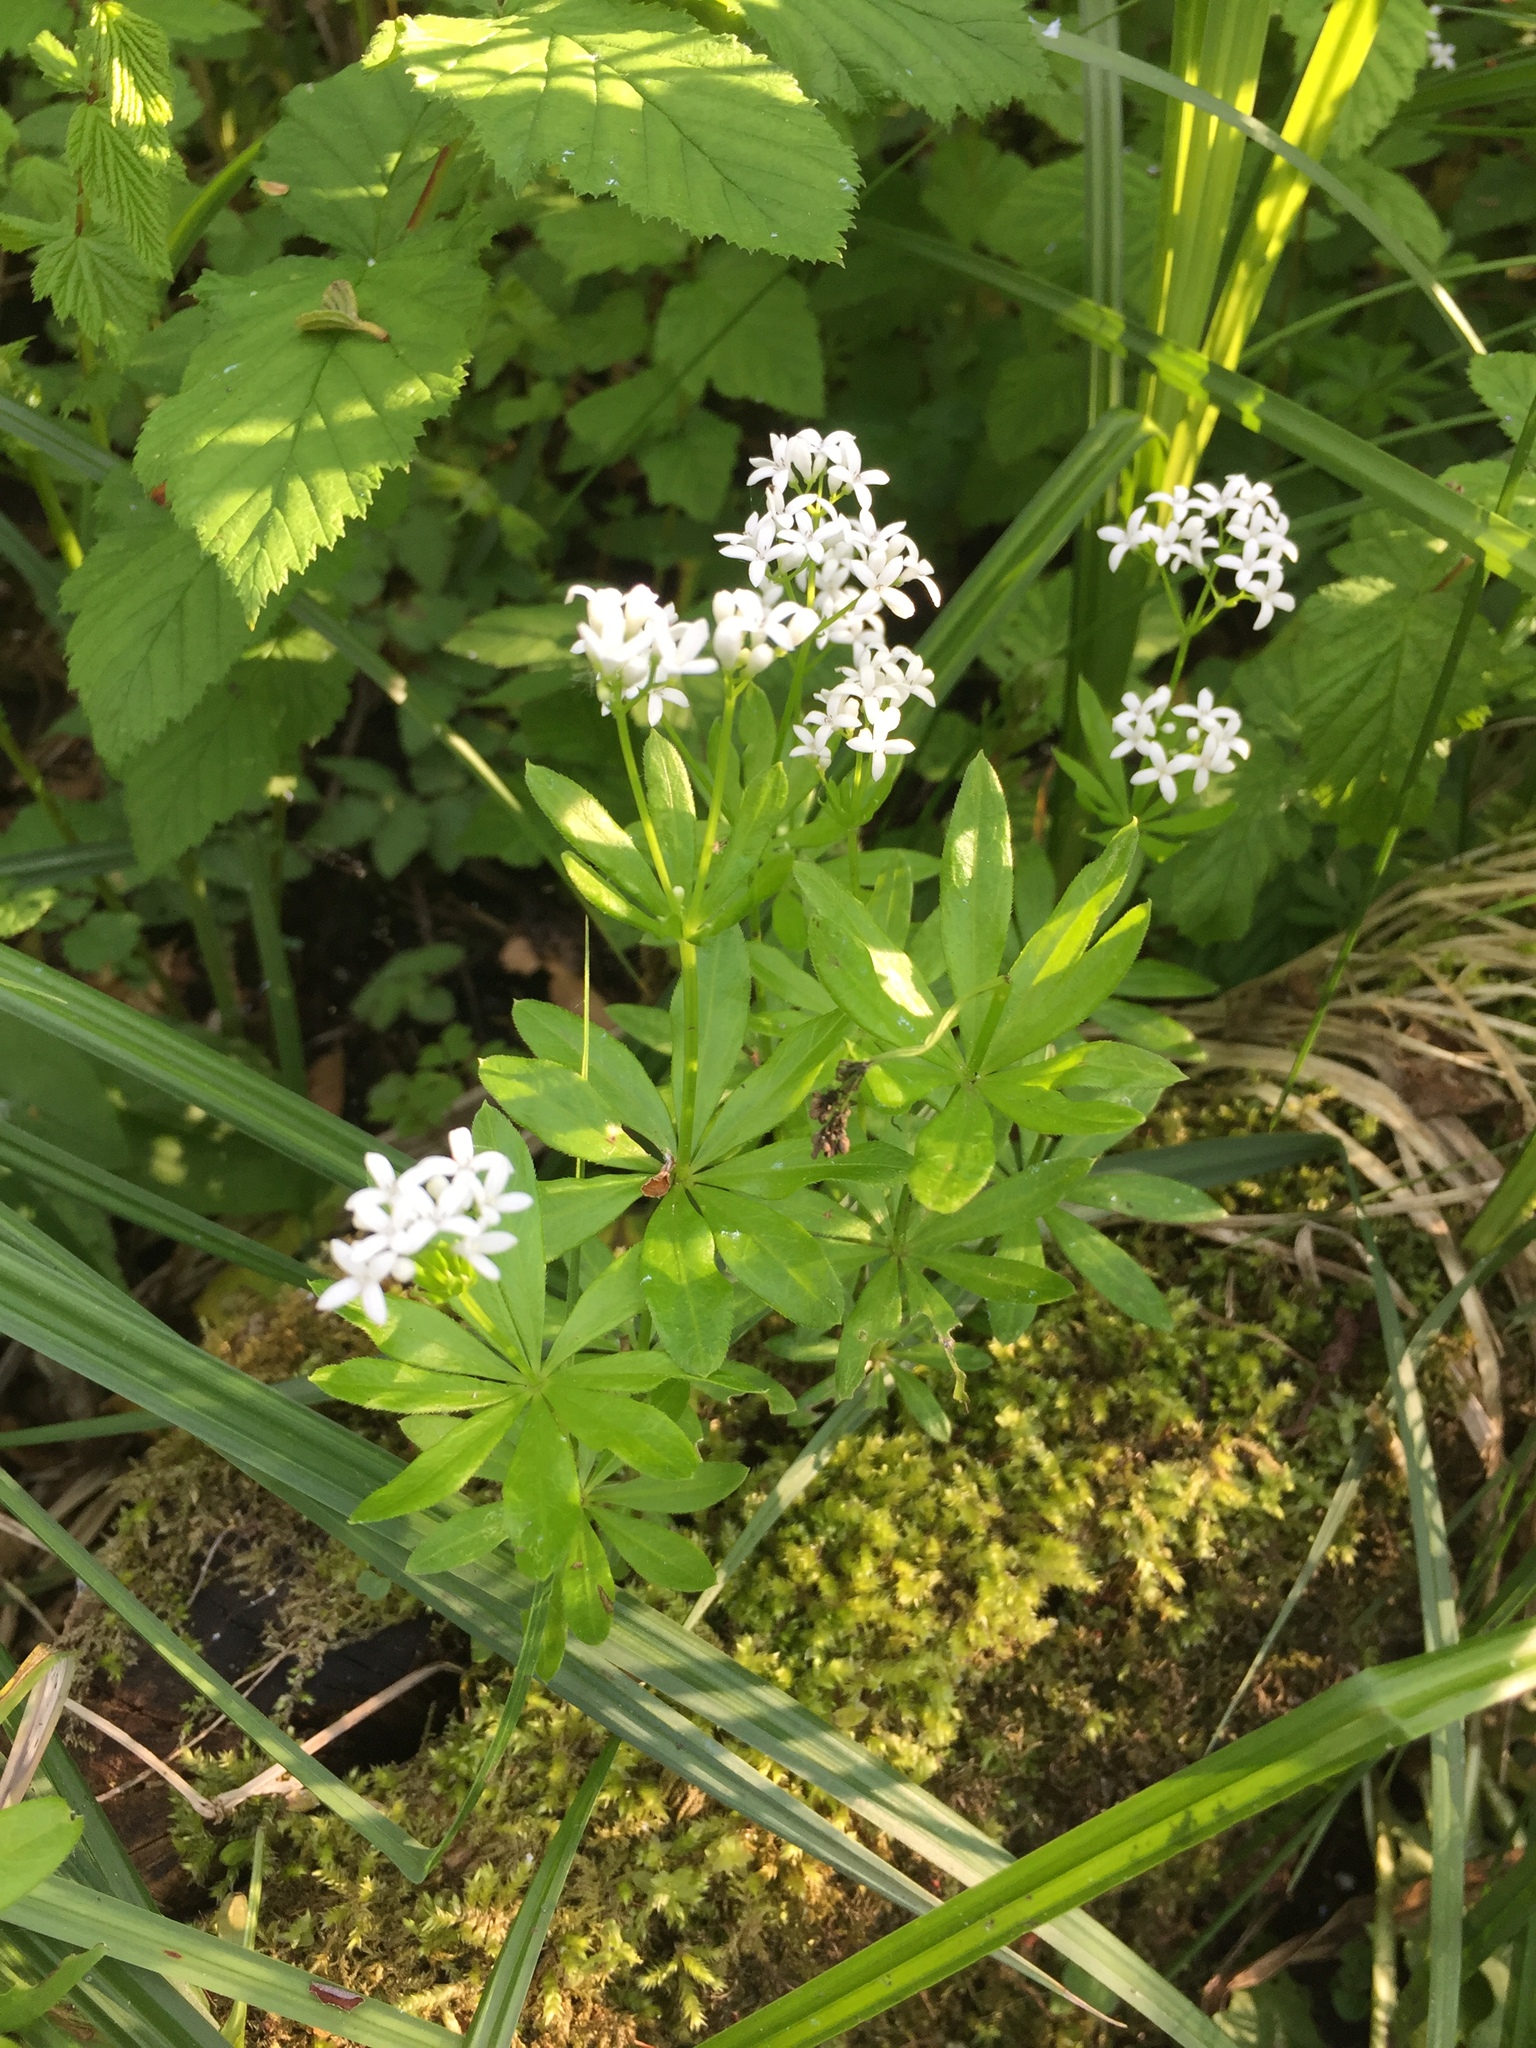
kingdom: Plantae
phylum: Tracheophyta
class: Magnoliopsida
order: Gentianales
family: Rubiaceae
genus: Galium
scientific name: Galium odoratum
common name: Sweet woodruff
